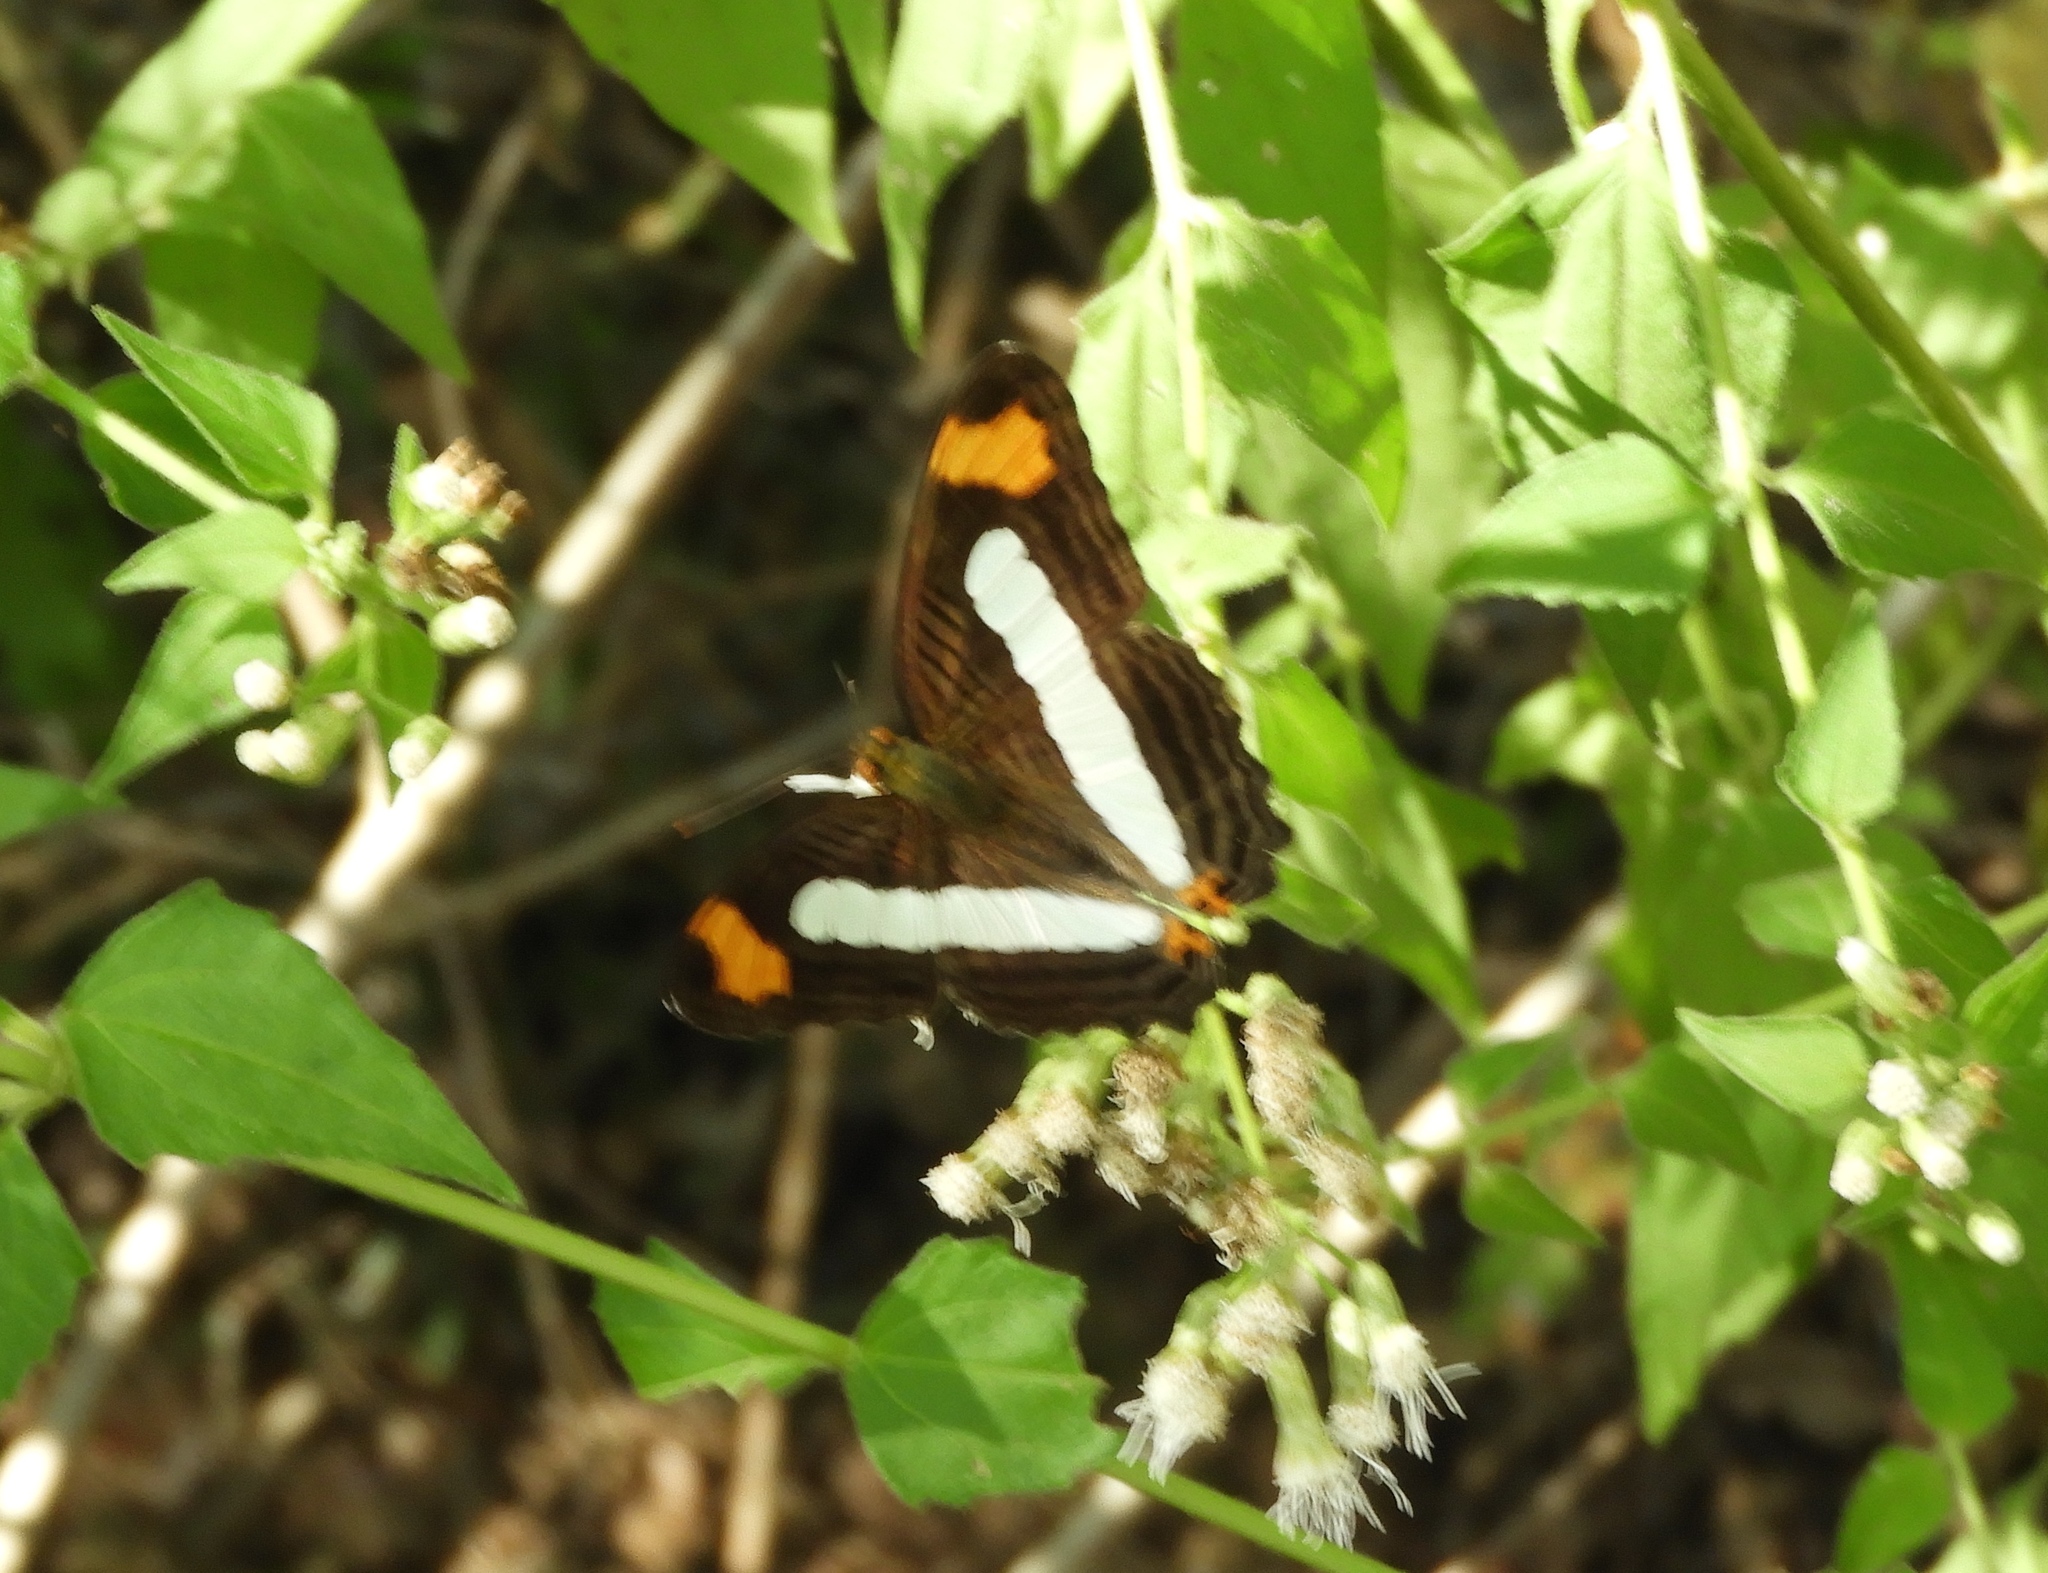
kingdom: Animalia
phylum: Arthropoda
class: Insecta
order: Lepidoptera
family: Nymphalidae
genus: Limenitis
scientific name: Limenitis iphiclus
